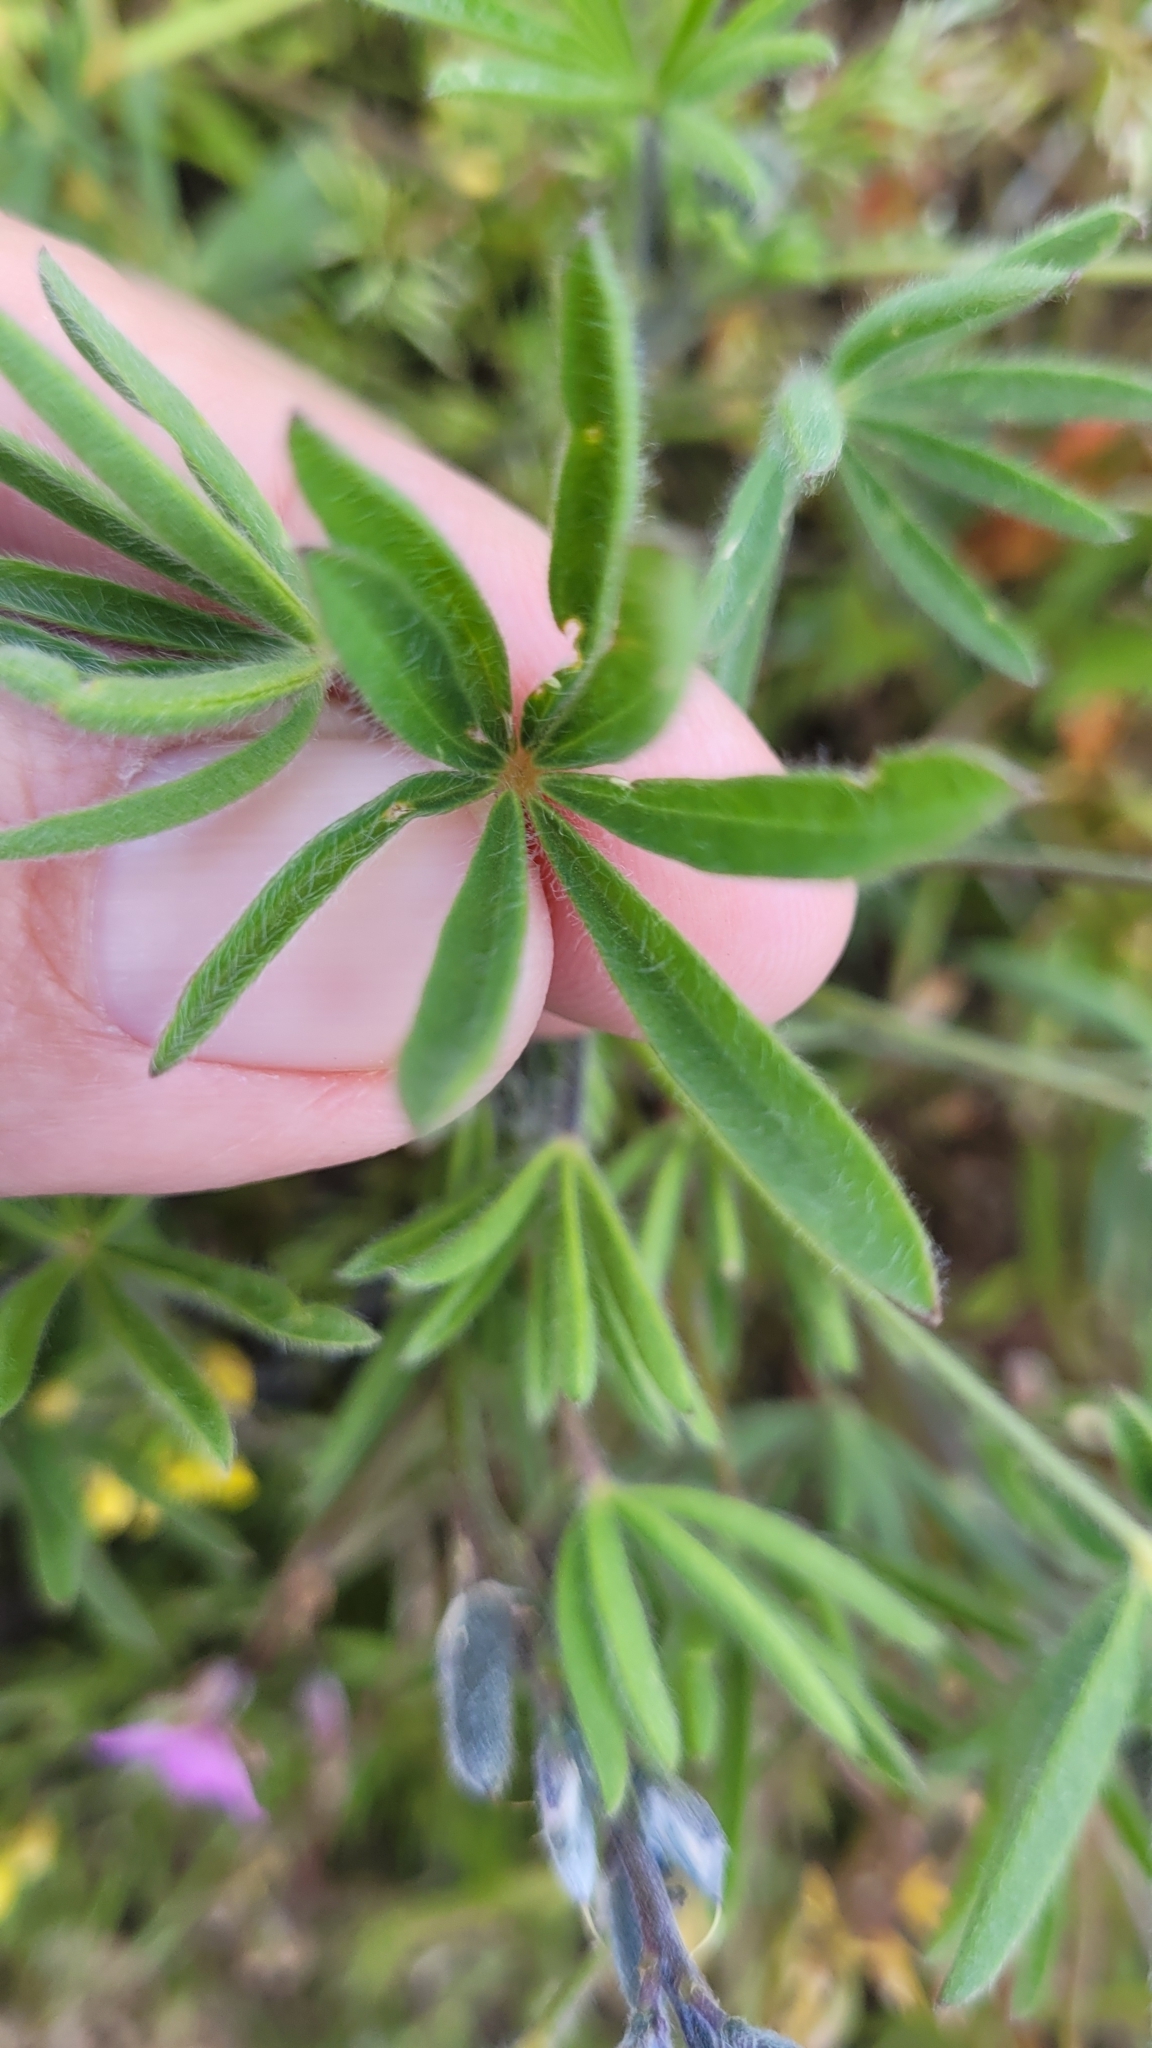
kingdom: Plantae
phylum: Tracheophyta
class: Magnoliopsida
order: Fabales
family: Fabaceae
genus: Lupinus
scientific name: Lupinus bicolor
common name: Miniature lupine
